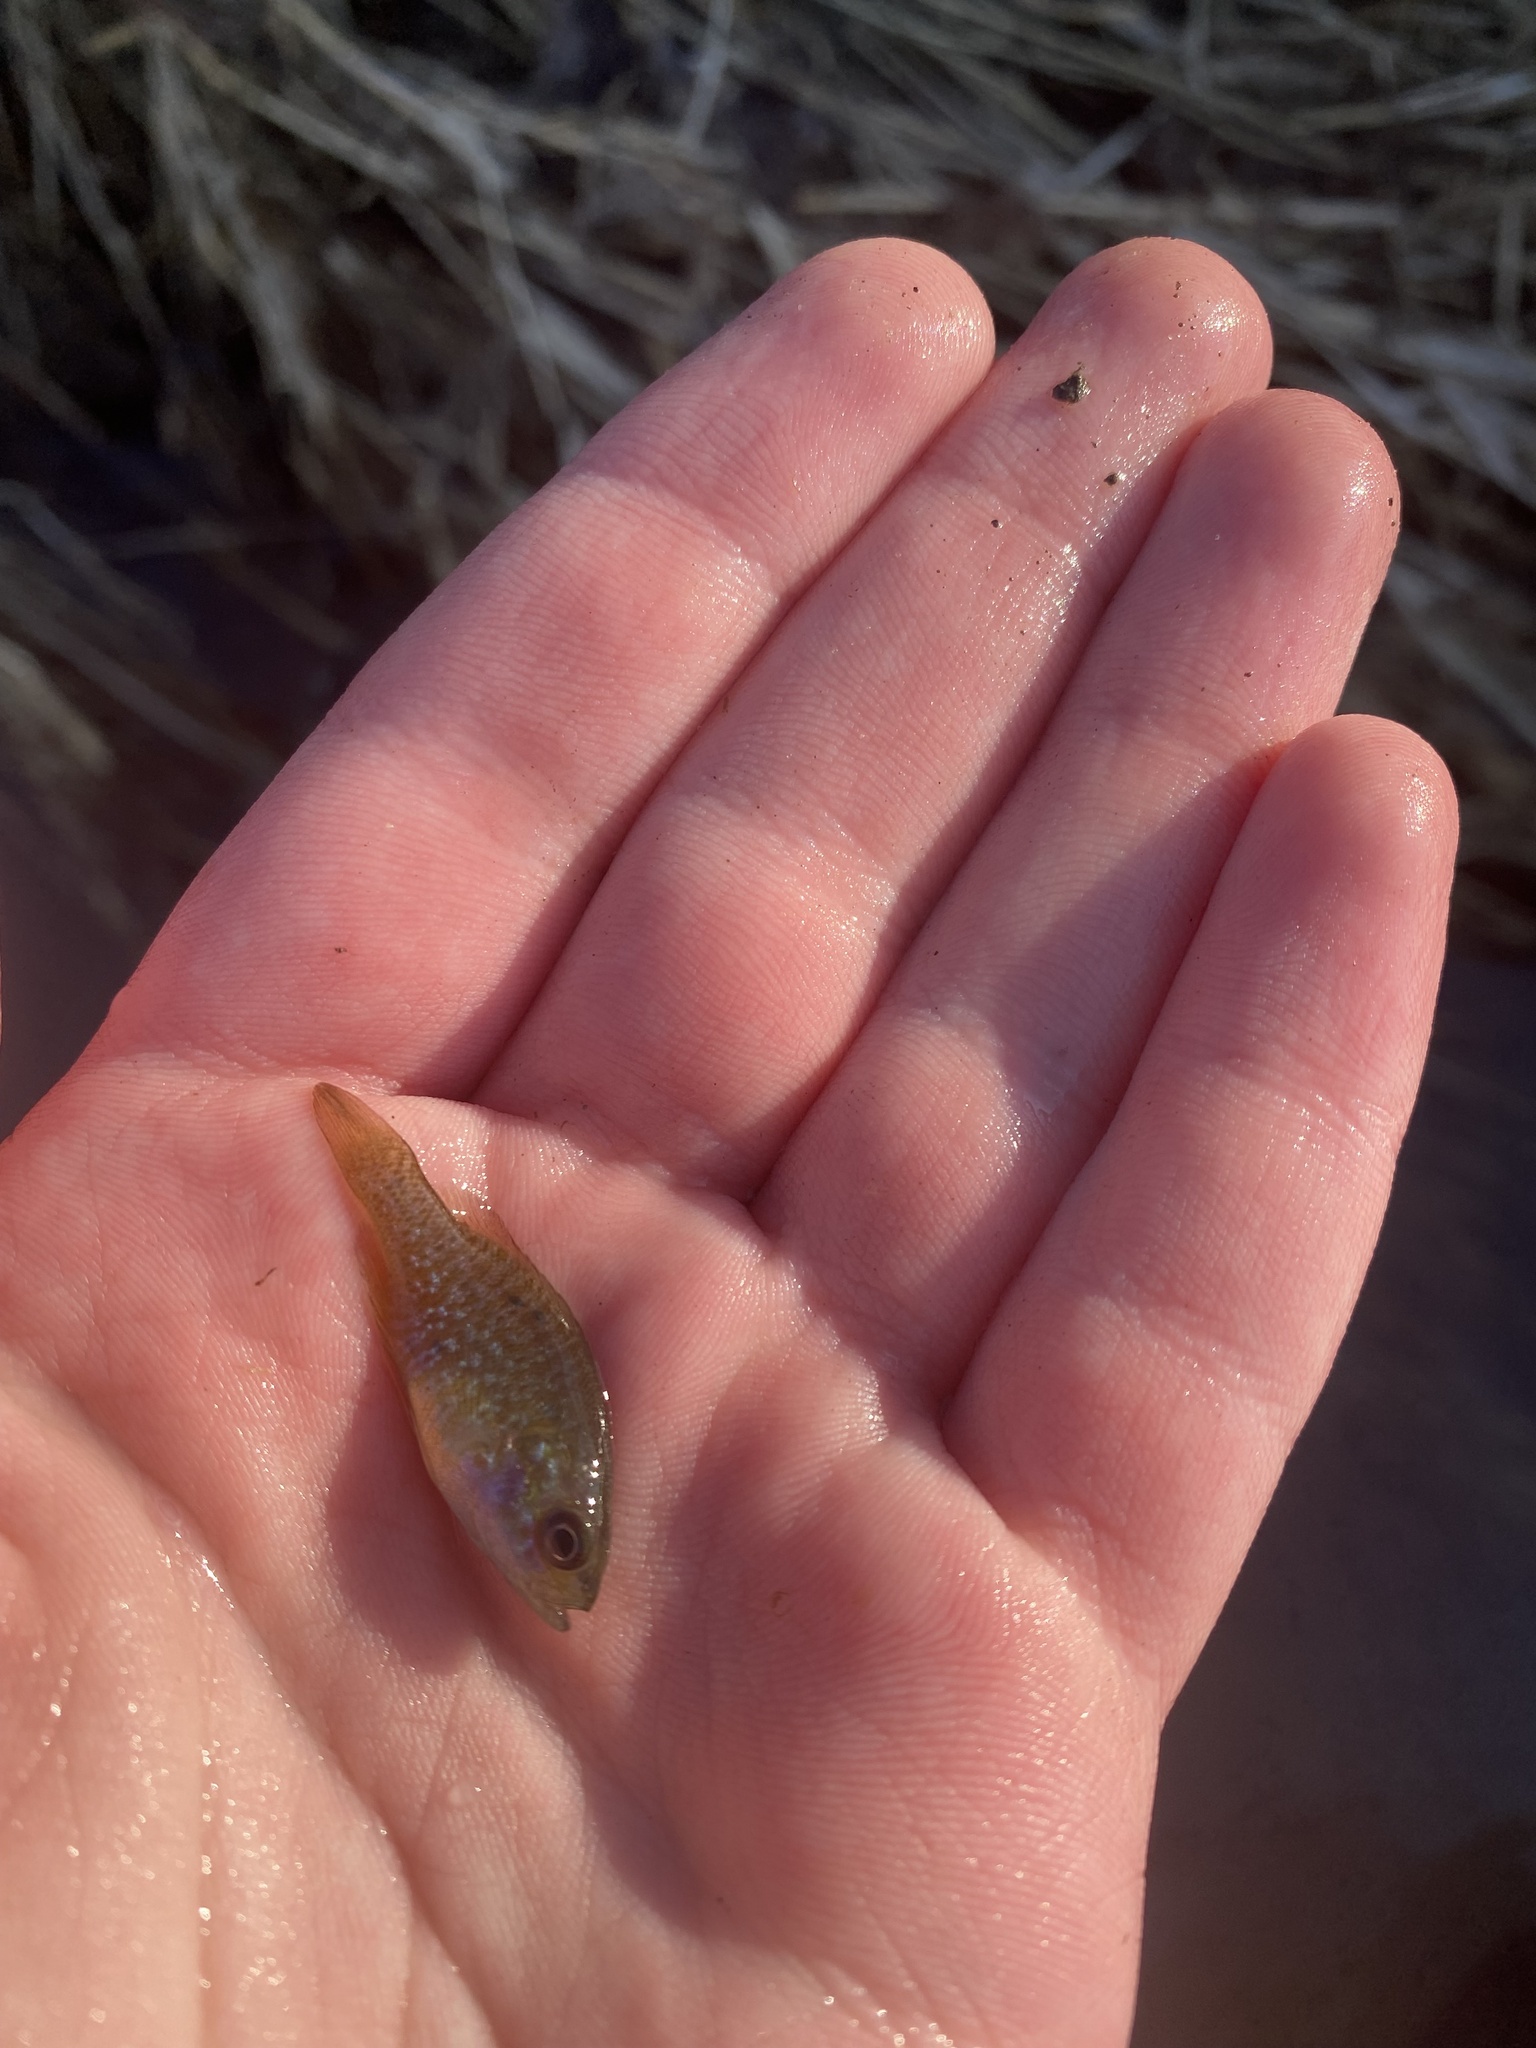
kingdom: Animalia
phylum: Chordata
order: Perciformes
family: Centrarchidae
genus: Lepomis
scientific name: Lepomis cyanellus
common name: Green sunfish
